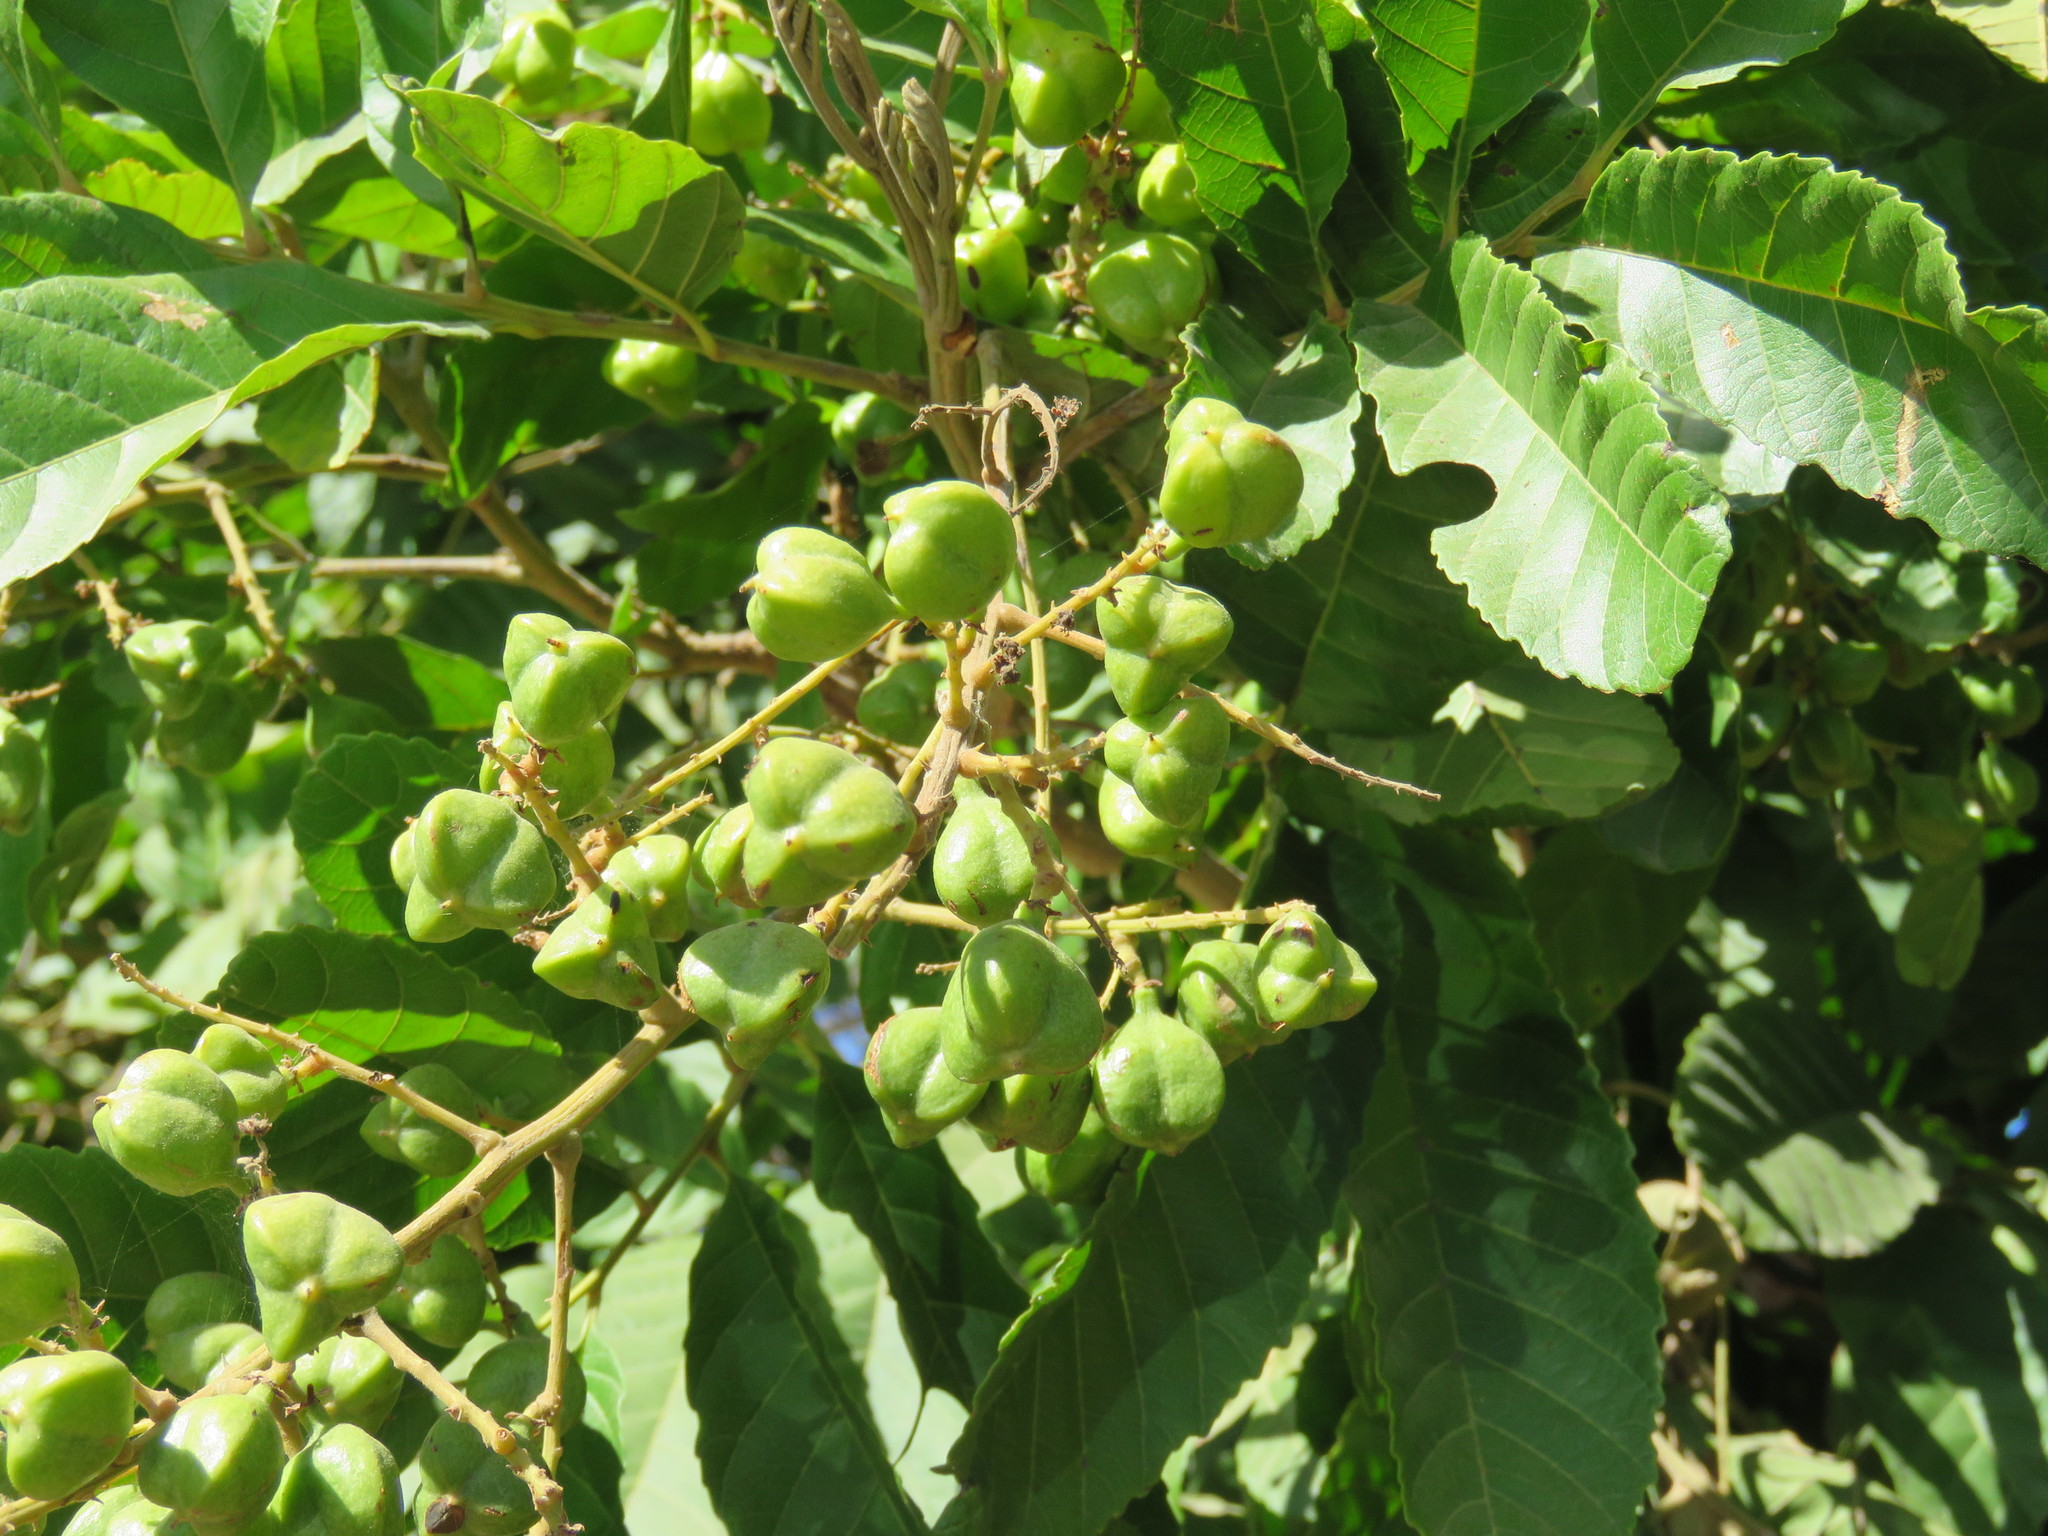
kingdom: Plantae
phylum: Tracheophyta
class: Magnoliopsida
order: Sapindales
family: Sapindaceae
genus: Cupania
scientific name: Cupania dentata
